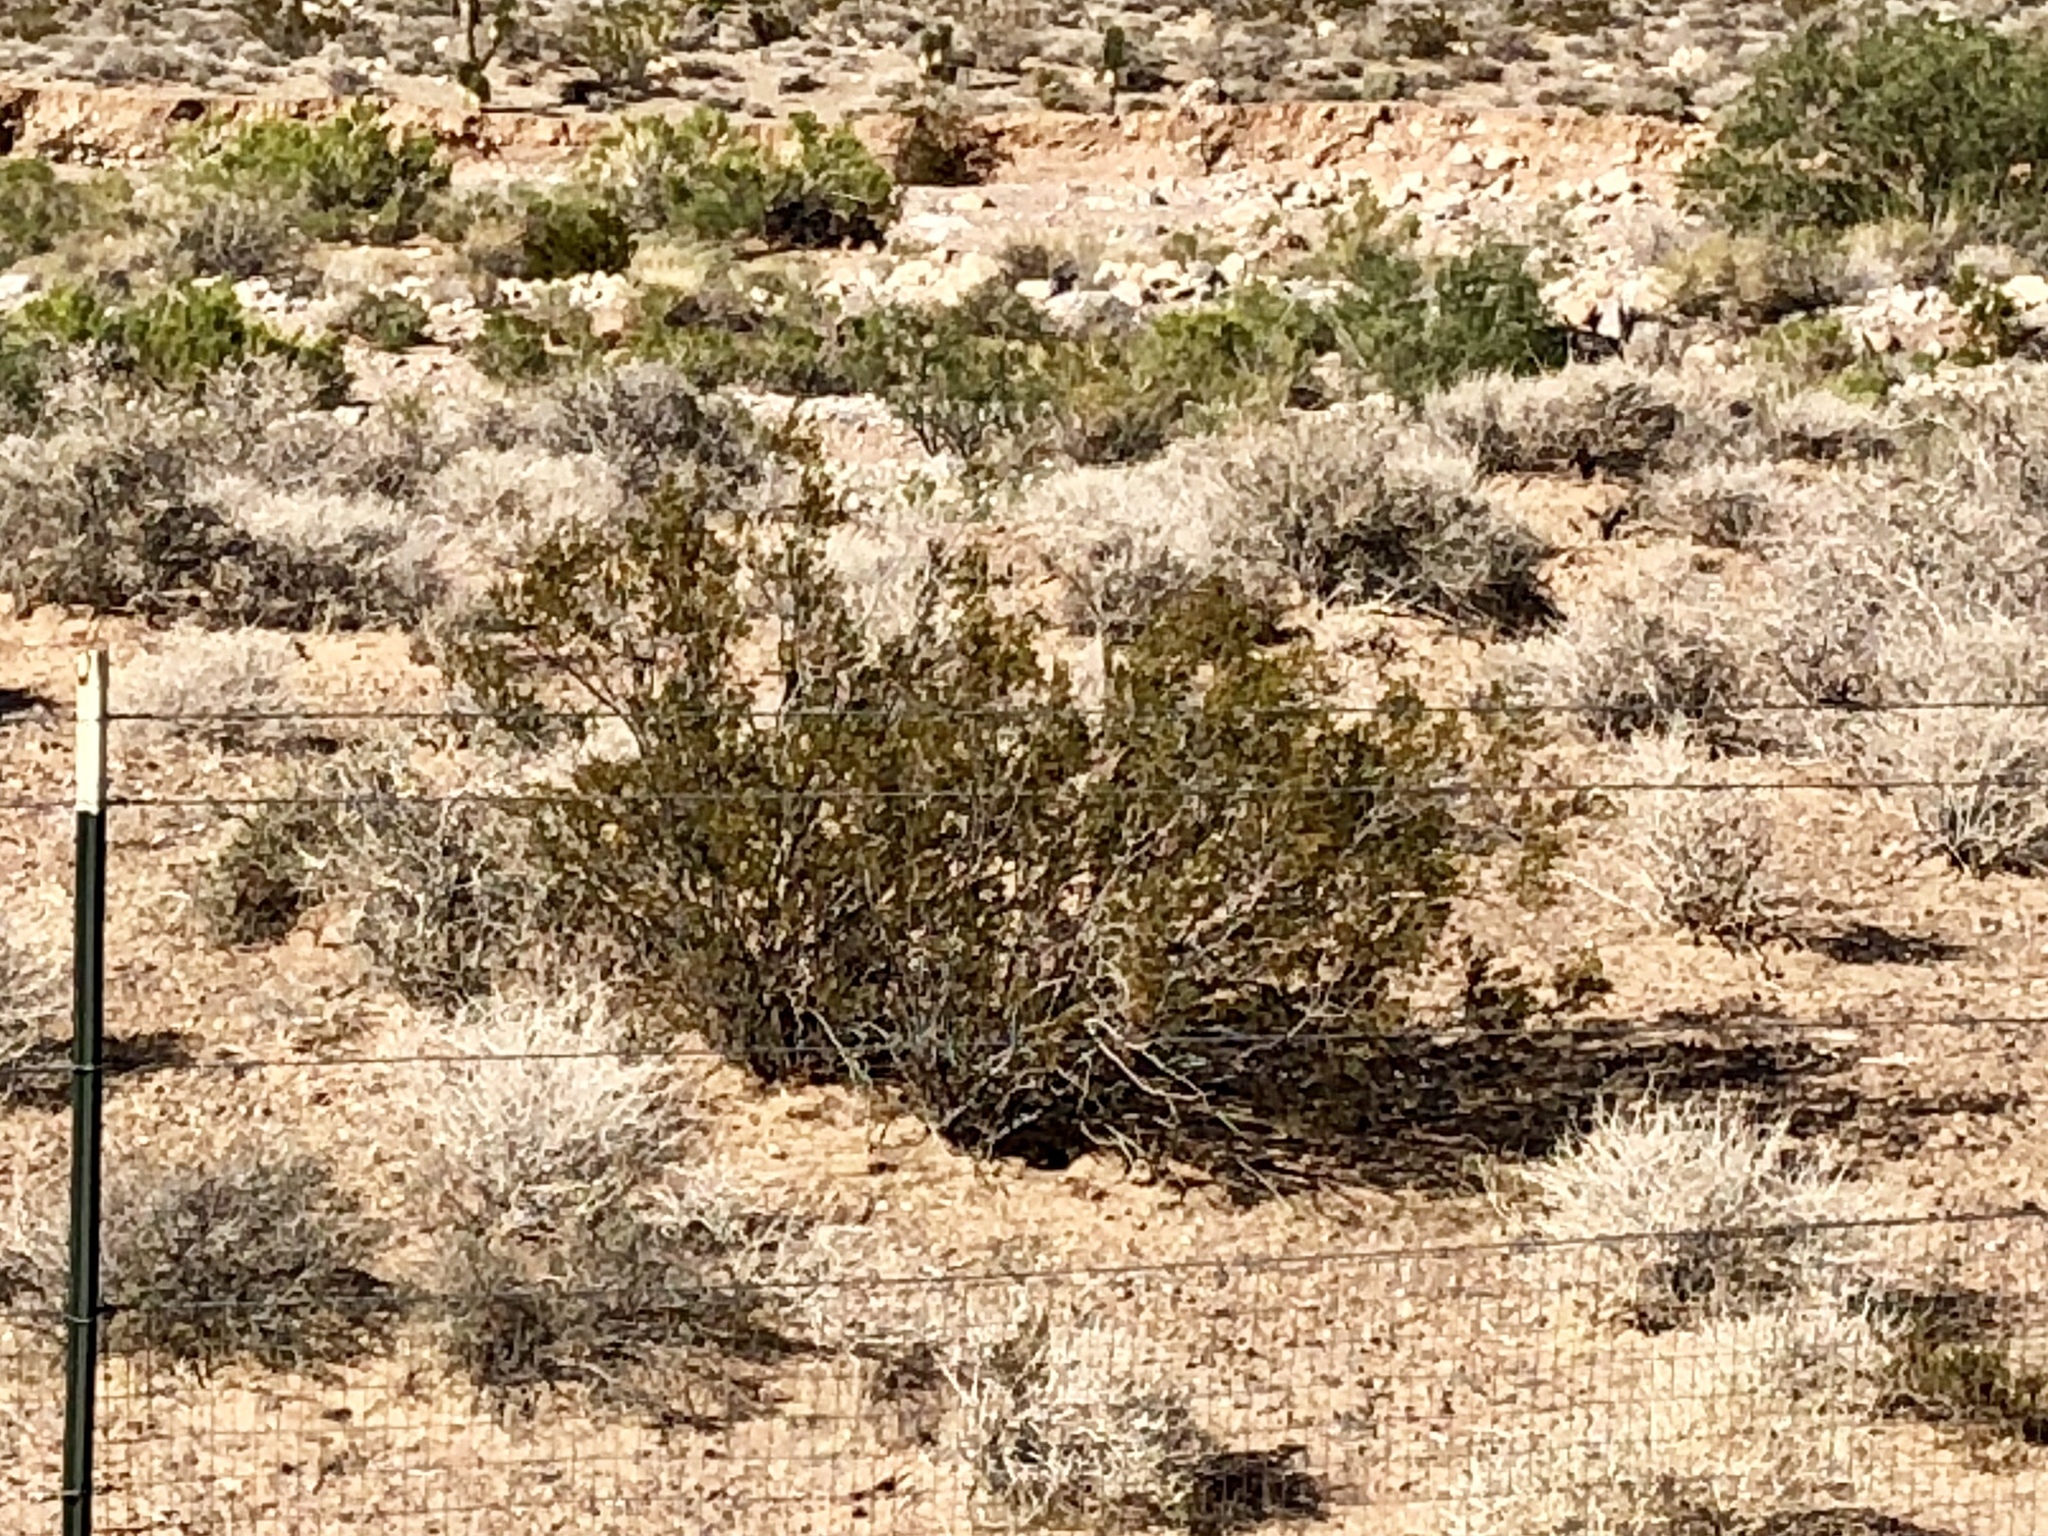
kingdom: Plantae
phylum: Tracheophyta
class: Magnoliopsida
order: Zygophyllales
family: Zygophyllaceae
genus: Larrea
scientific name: Larrea tridentata
